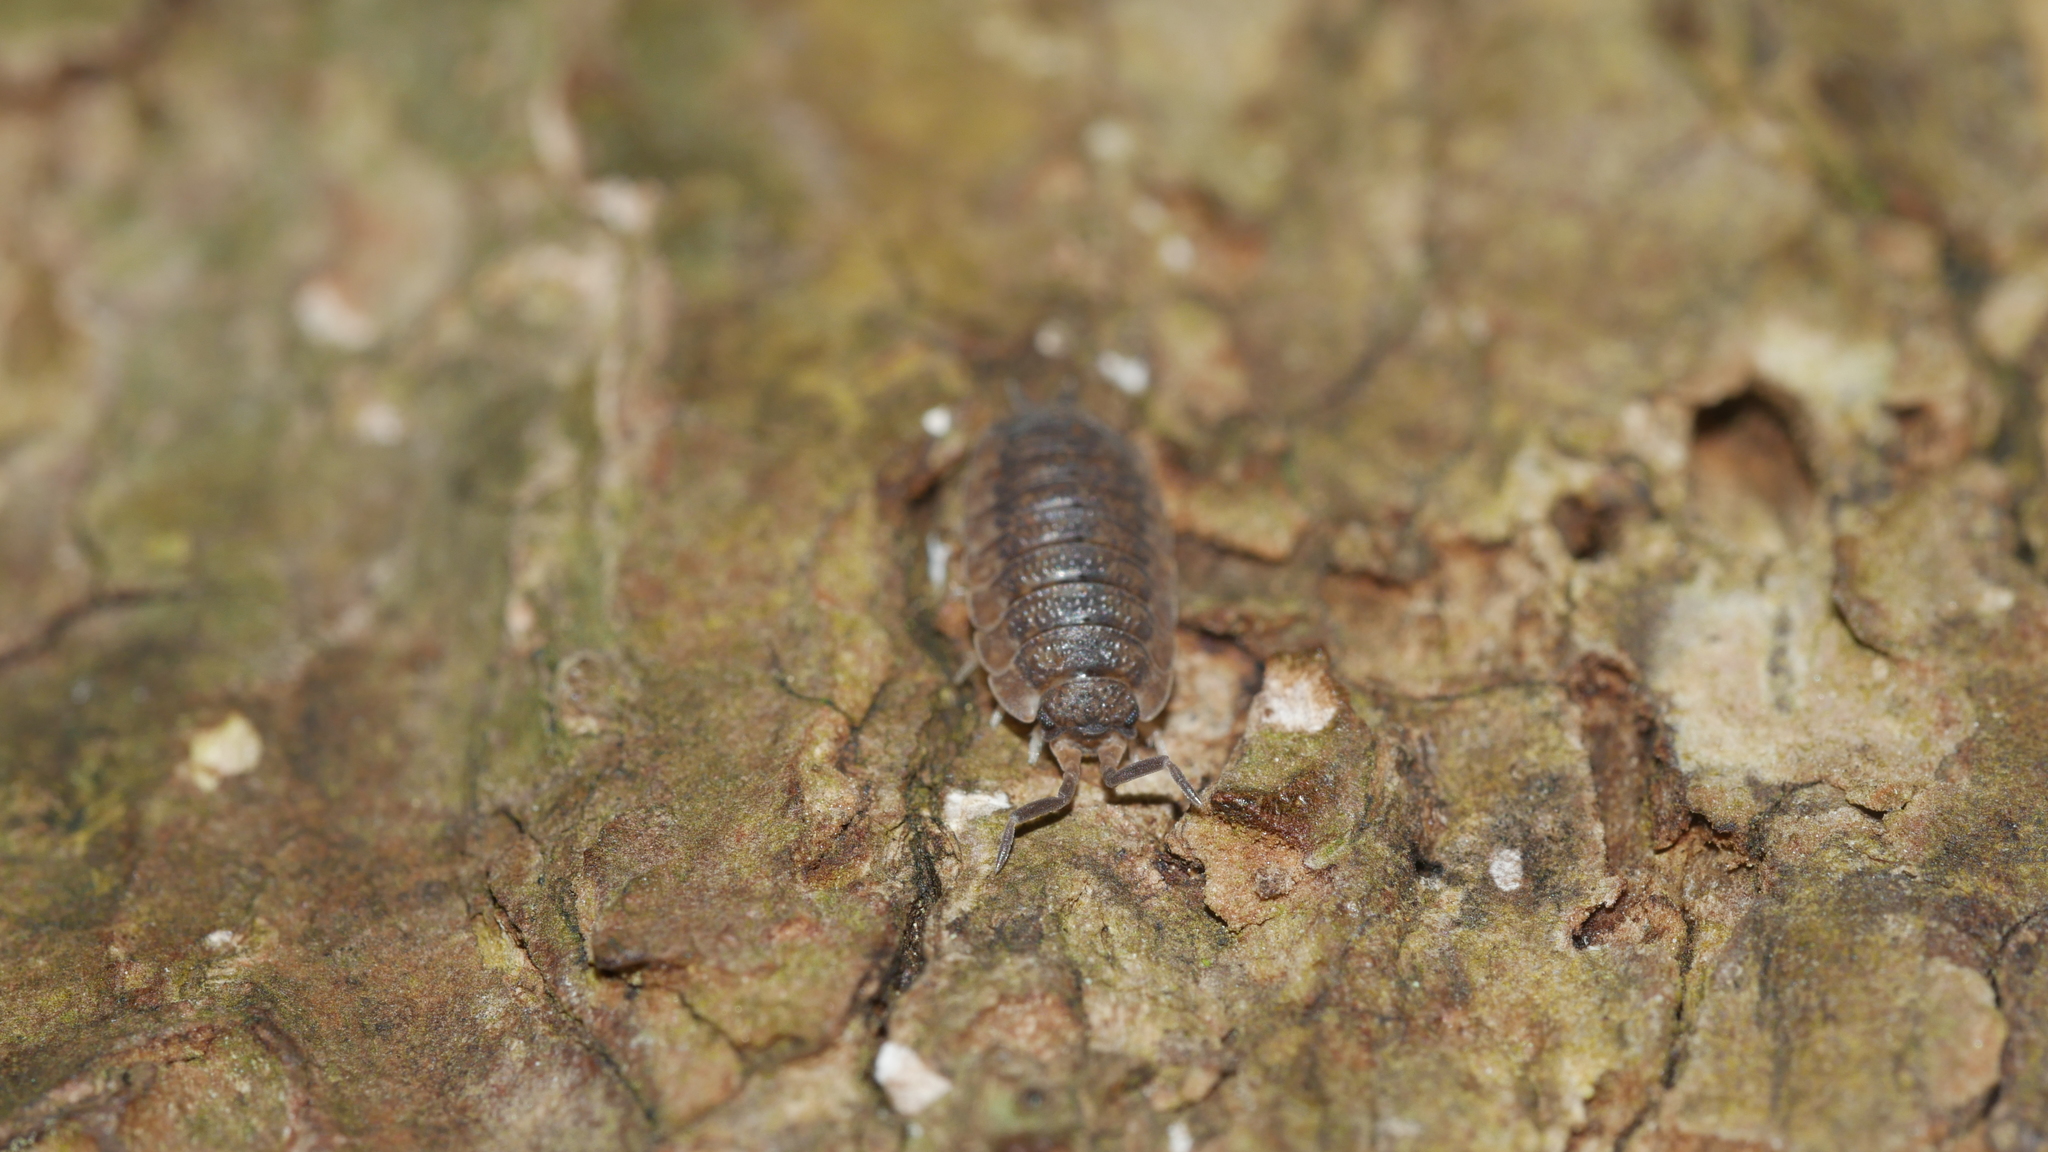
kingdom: Animalia
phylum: Arthropoda
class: Malacostraca
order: Isopoda
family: Porcellionidae
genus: Porcellio
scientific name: Porcellio scaber
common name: Common rough woodlouse
